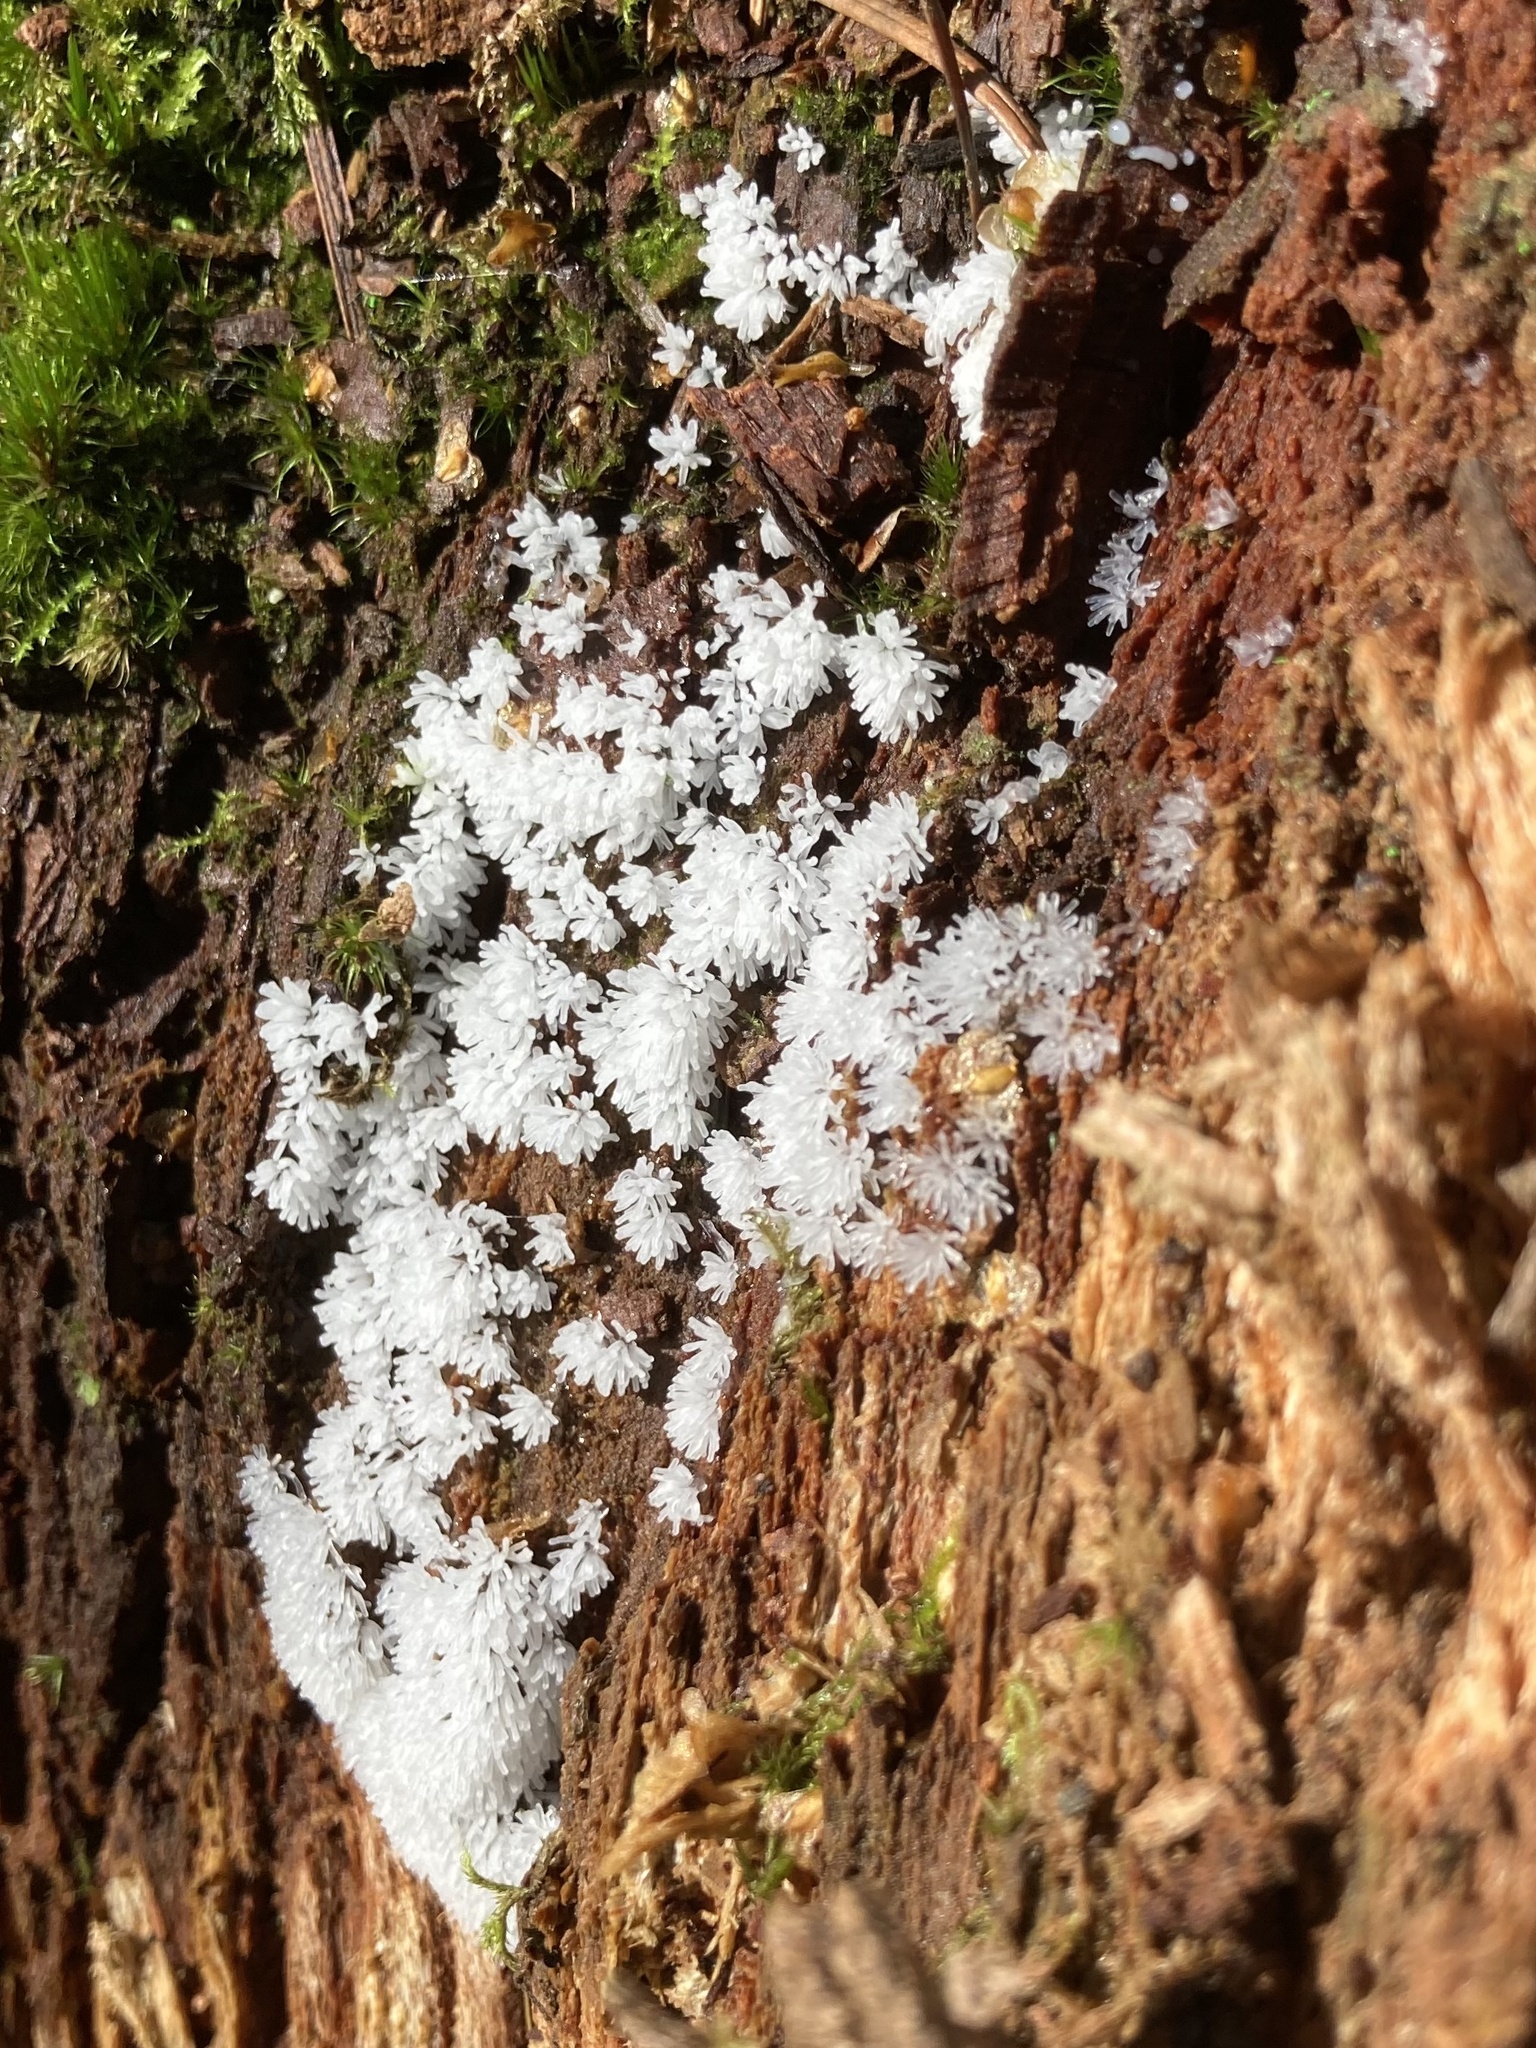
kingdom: Protozoa
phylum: Mycetozoa
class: Protosteliomycetes
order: Ceratiomyxales
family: Ceratiomyxaceae
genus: Ceratiomyxa
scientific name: Ceratiomyxa fruticulosa
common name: Honeycomb coral slime mold
